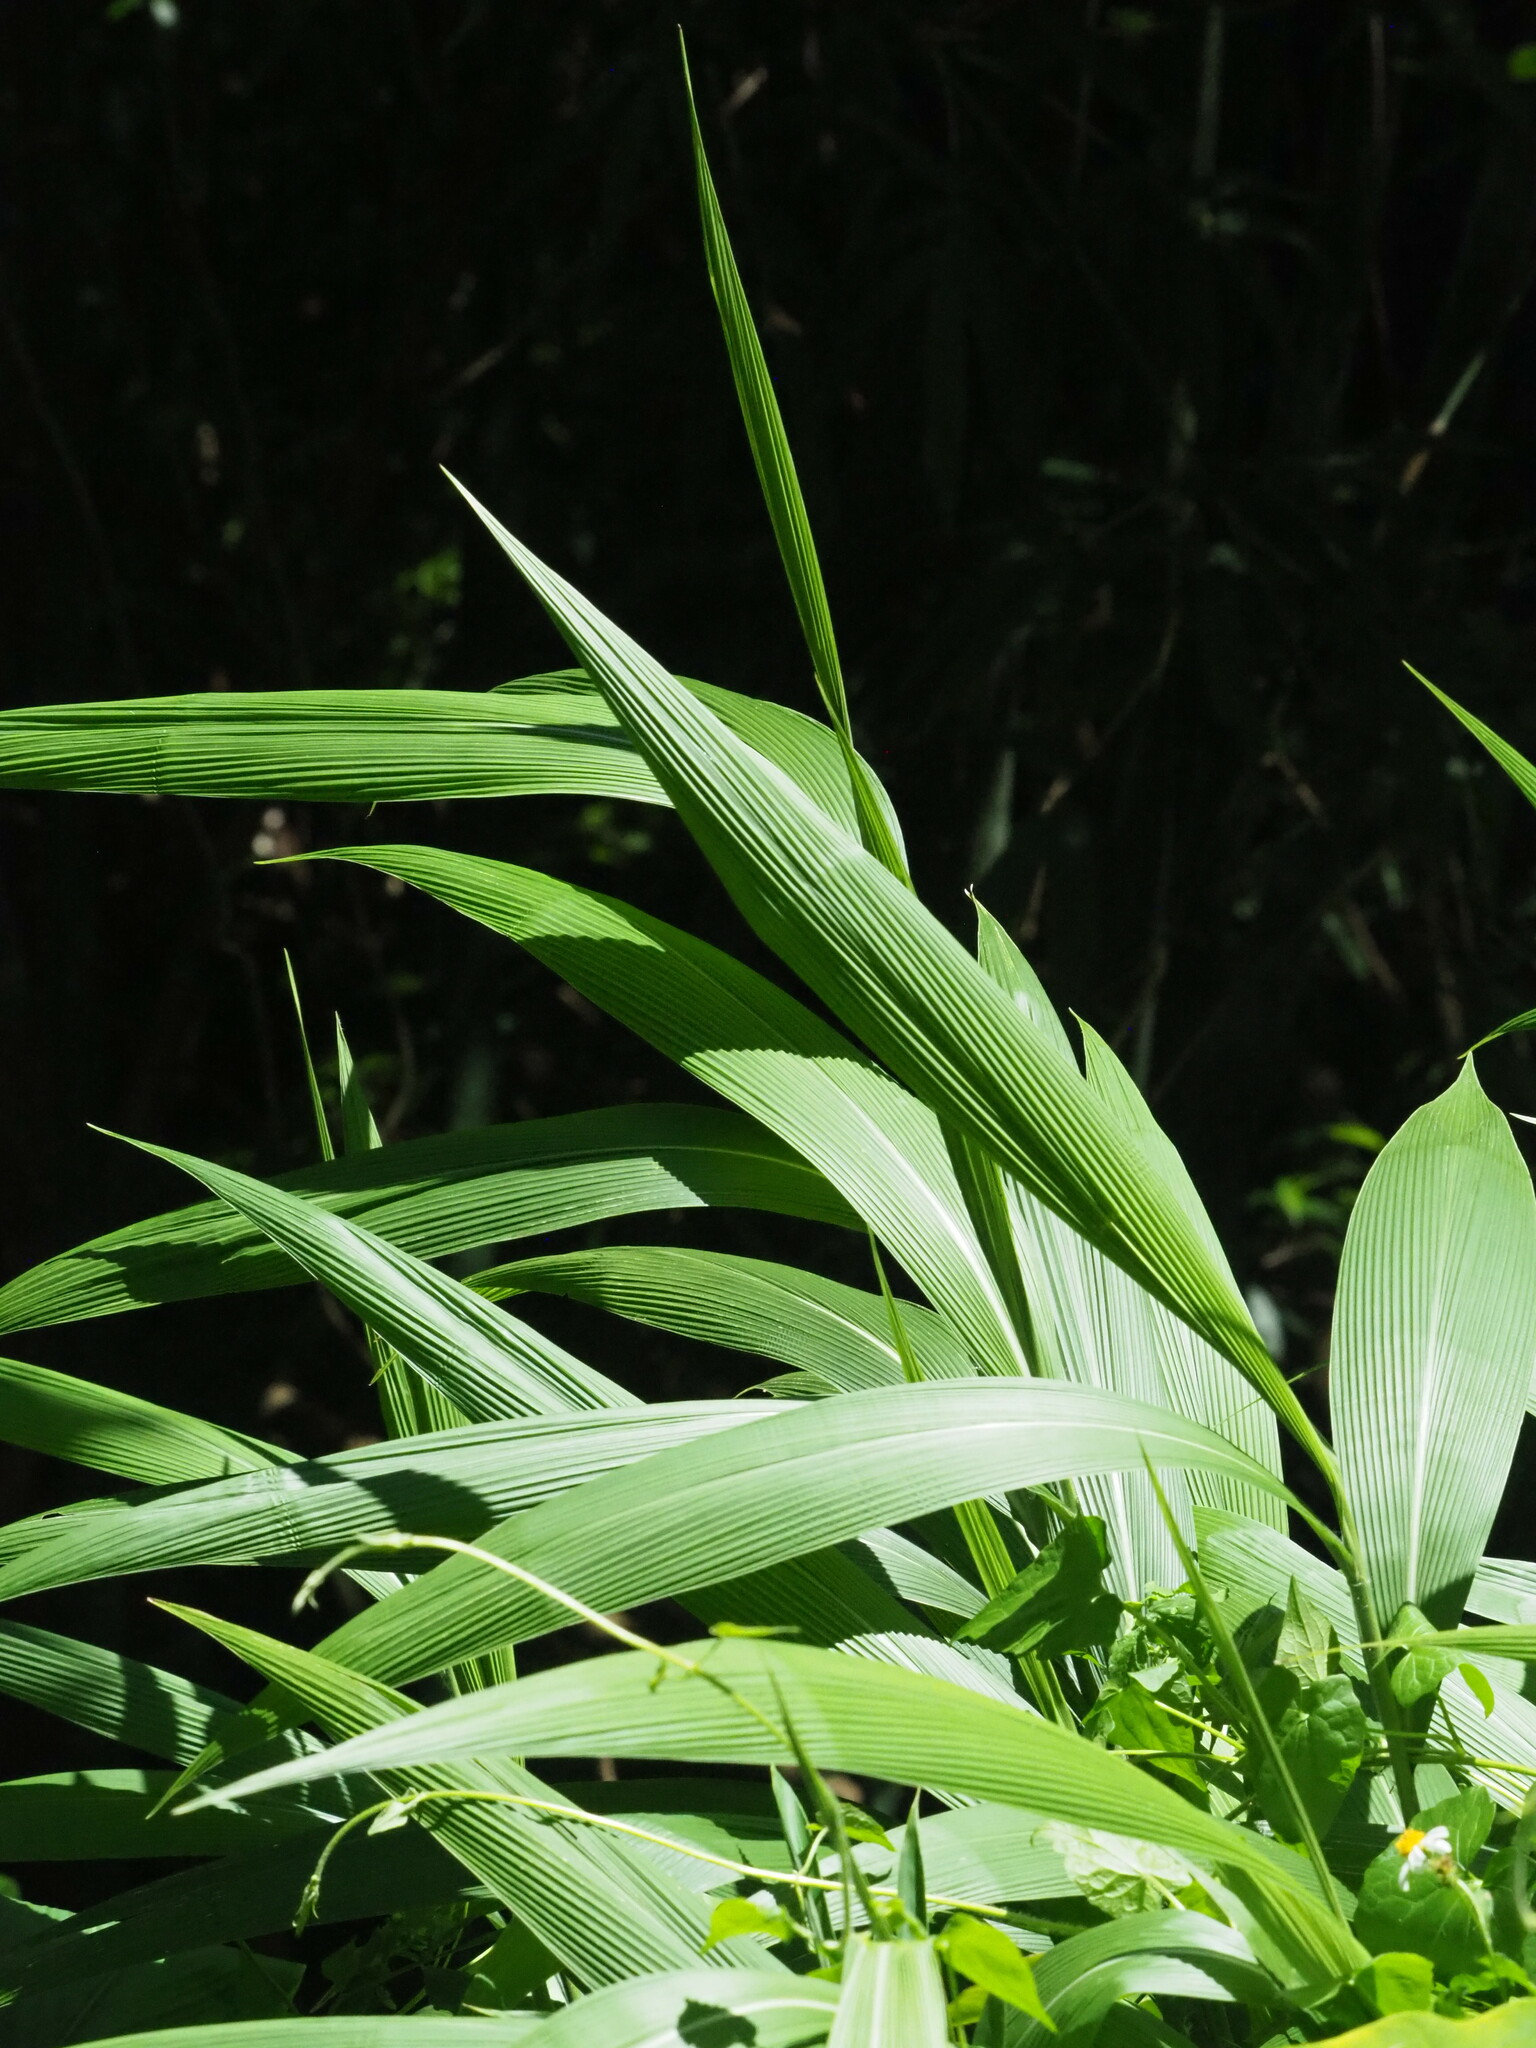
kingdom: Plantae
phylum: Tracheophyta
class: Liliopsida
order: Poales
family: Poaceae
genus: Setaria
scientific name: Setaria palmifolia
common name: Broadleaved bristlegrass
